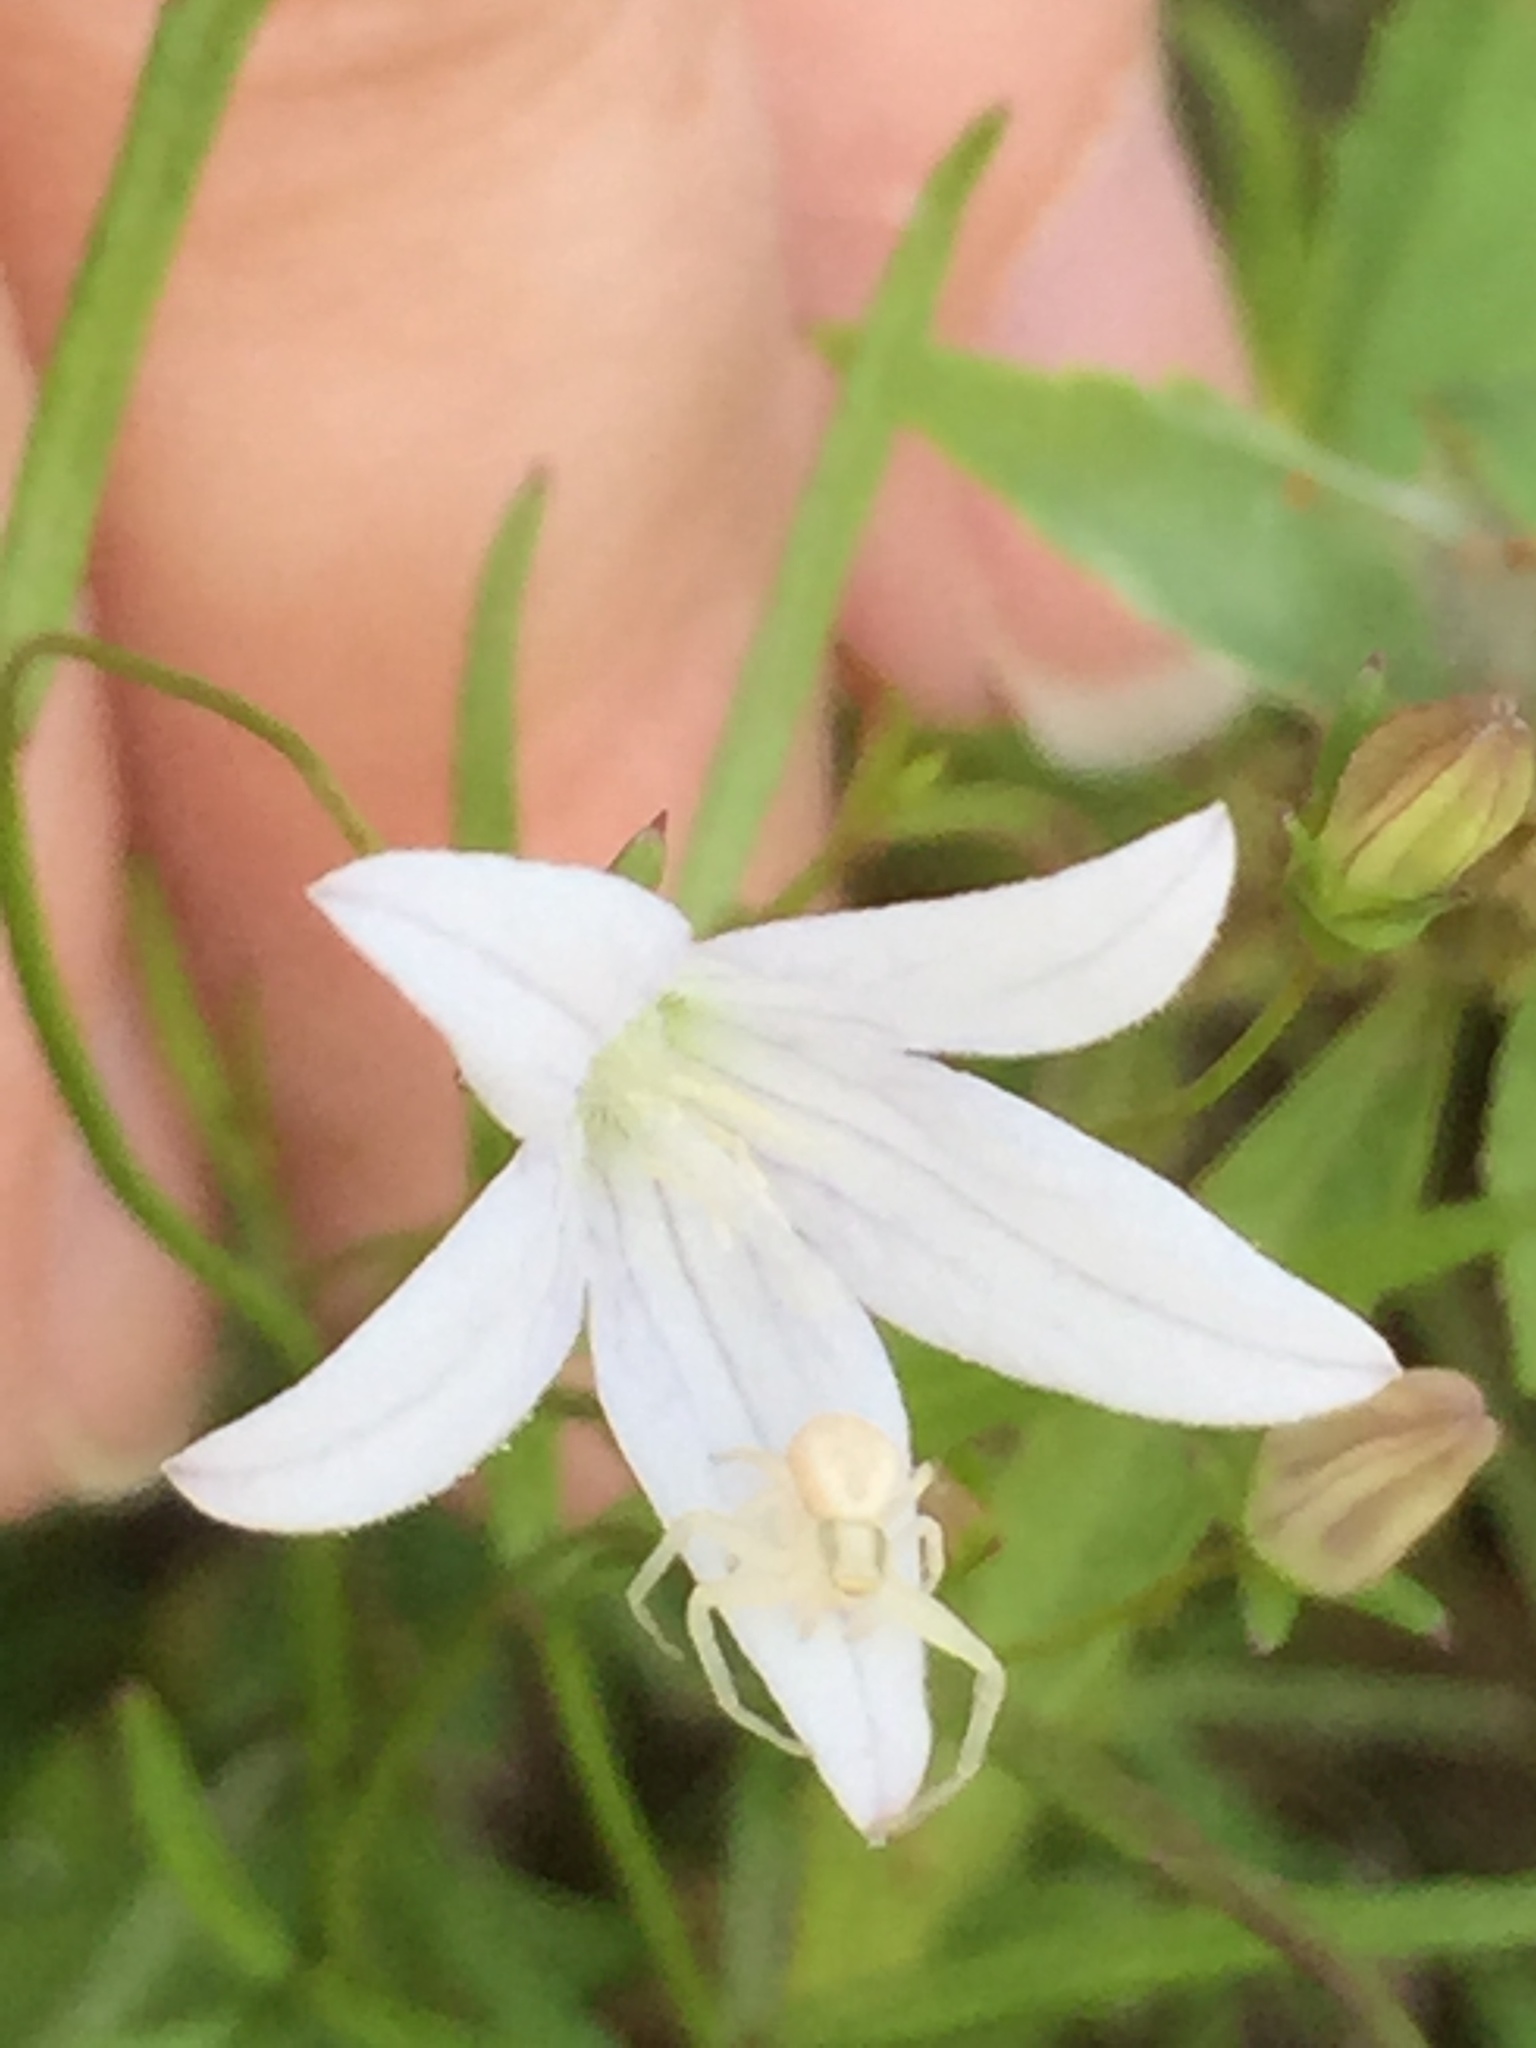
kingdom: Plantae
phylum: Tracheophyta
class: Magnoliopsida
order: Asterales
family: Campanulaceae
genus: Palustricodon
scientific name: Palustricodon aparinoides
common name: Bedstraw bellflower
